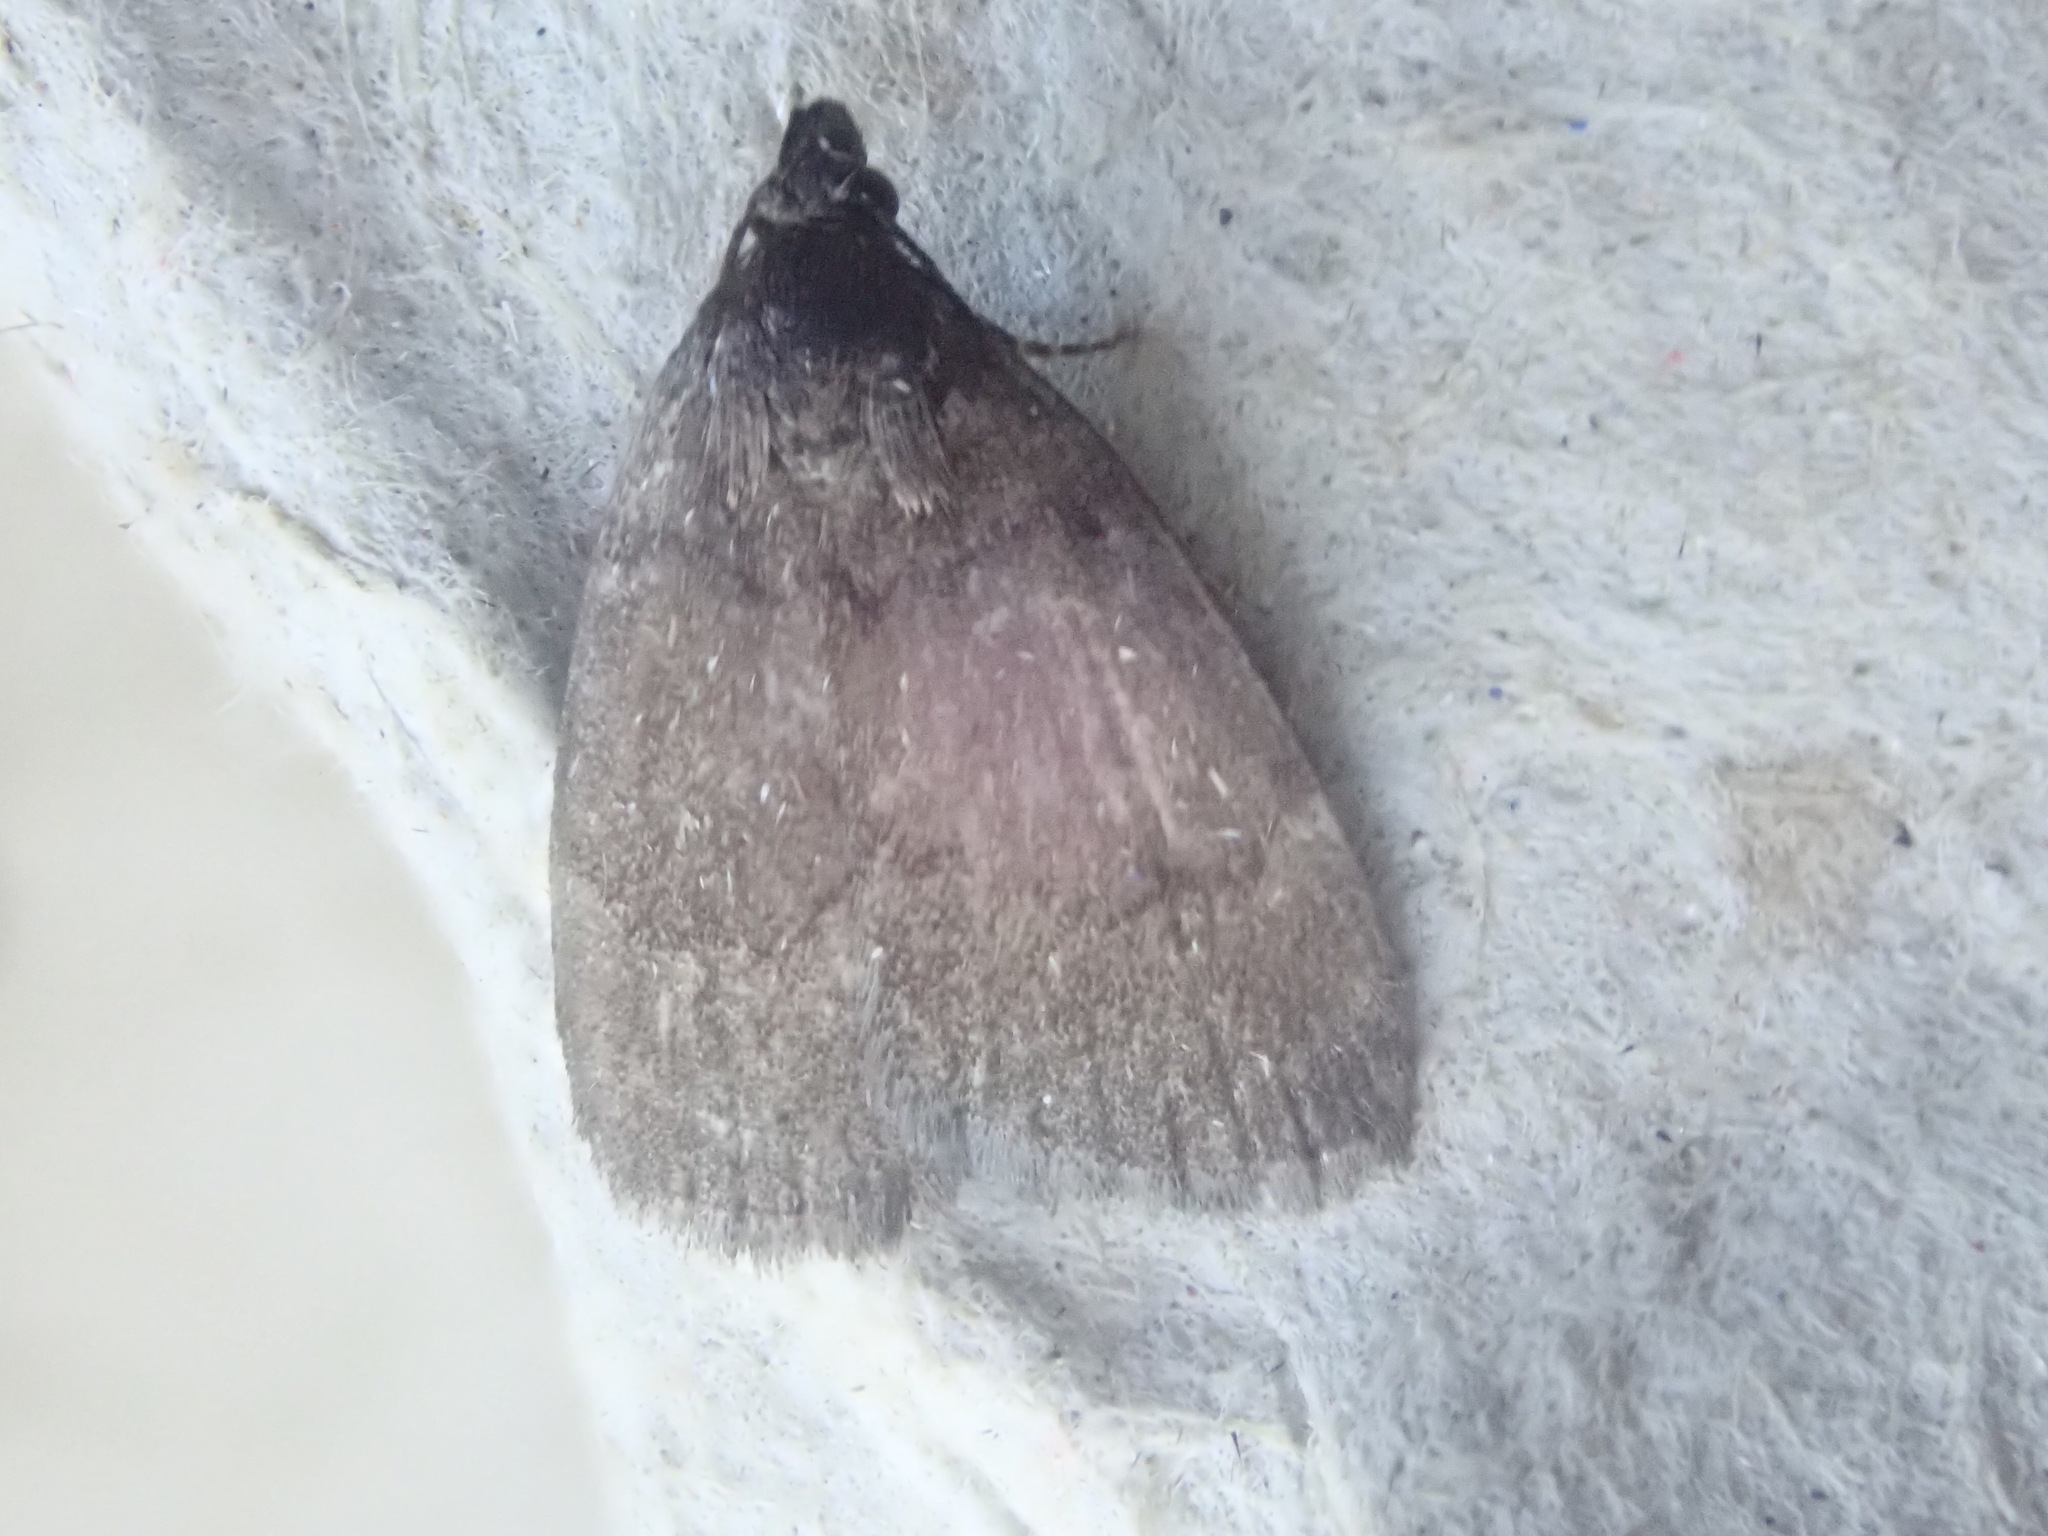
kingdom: Animalia
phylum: Arthropoda
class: Insecta
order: Lepidoptera
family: Erebidae
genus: Idia
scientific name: Idia rotundalis
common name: Rotund idia moth
